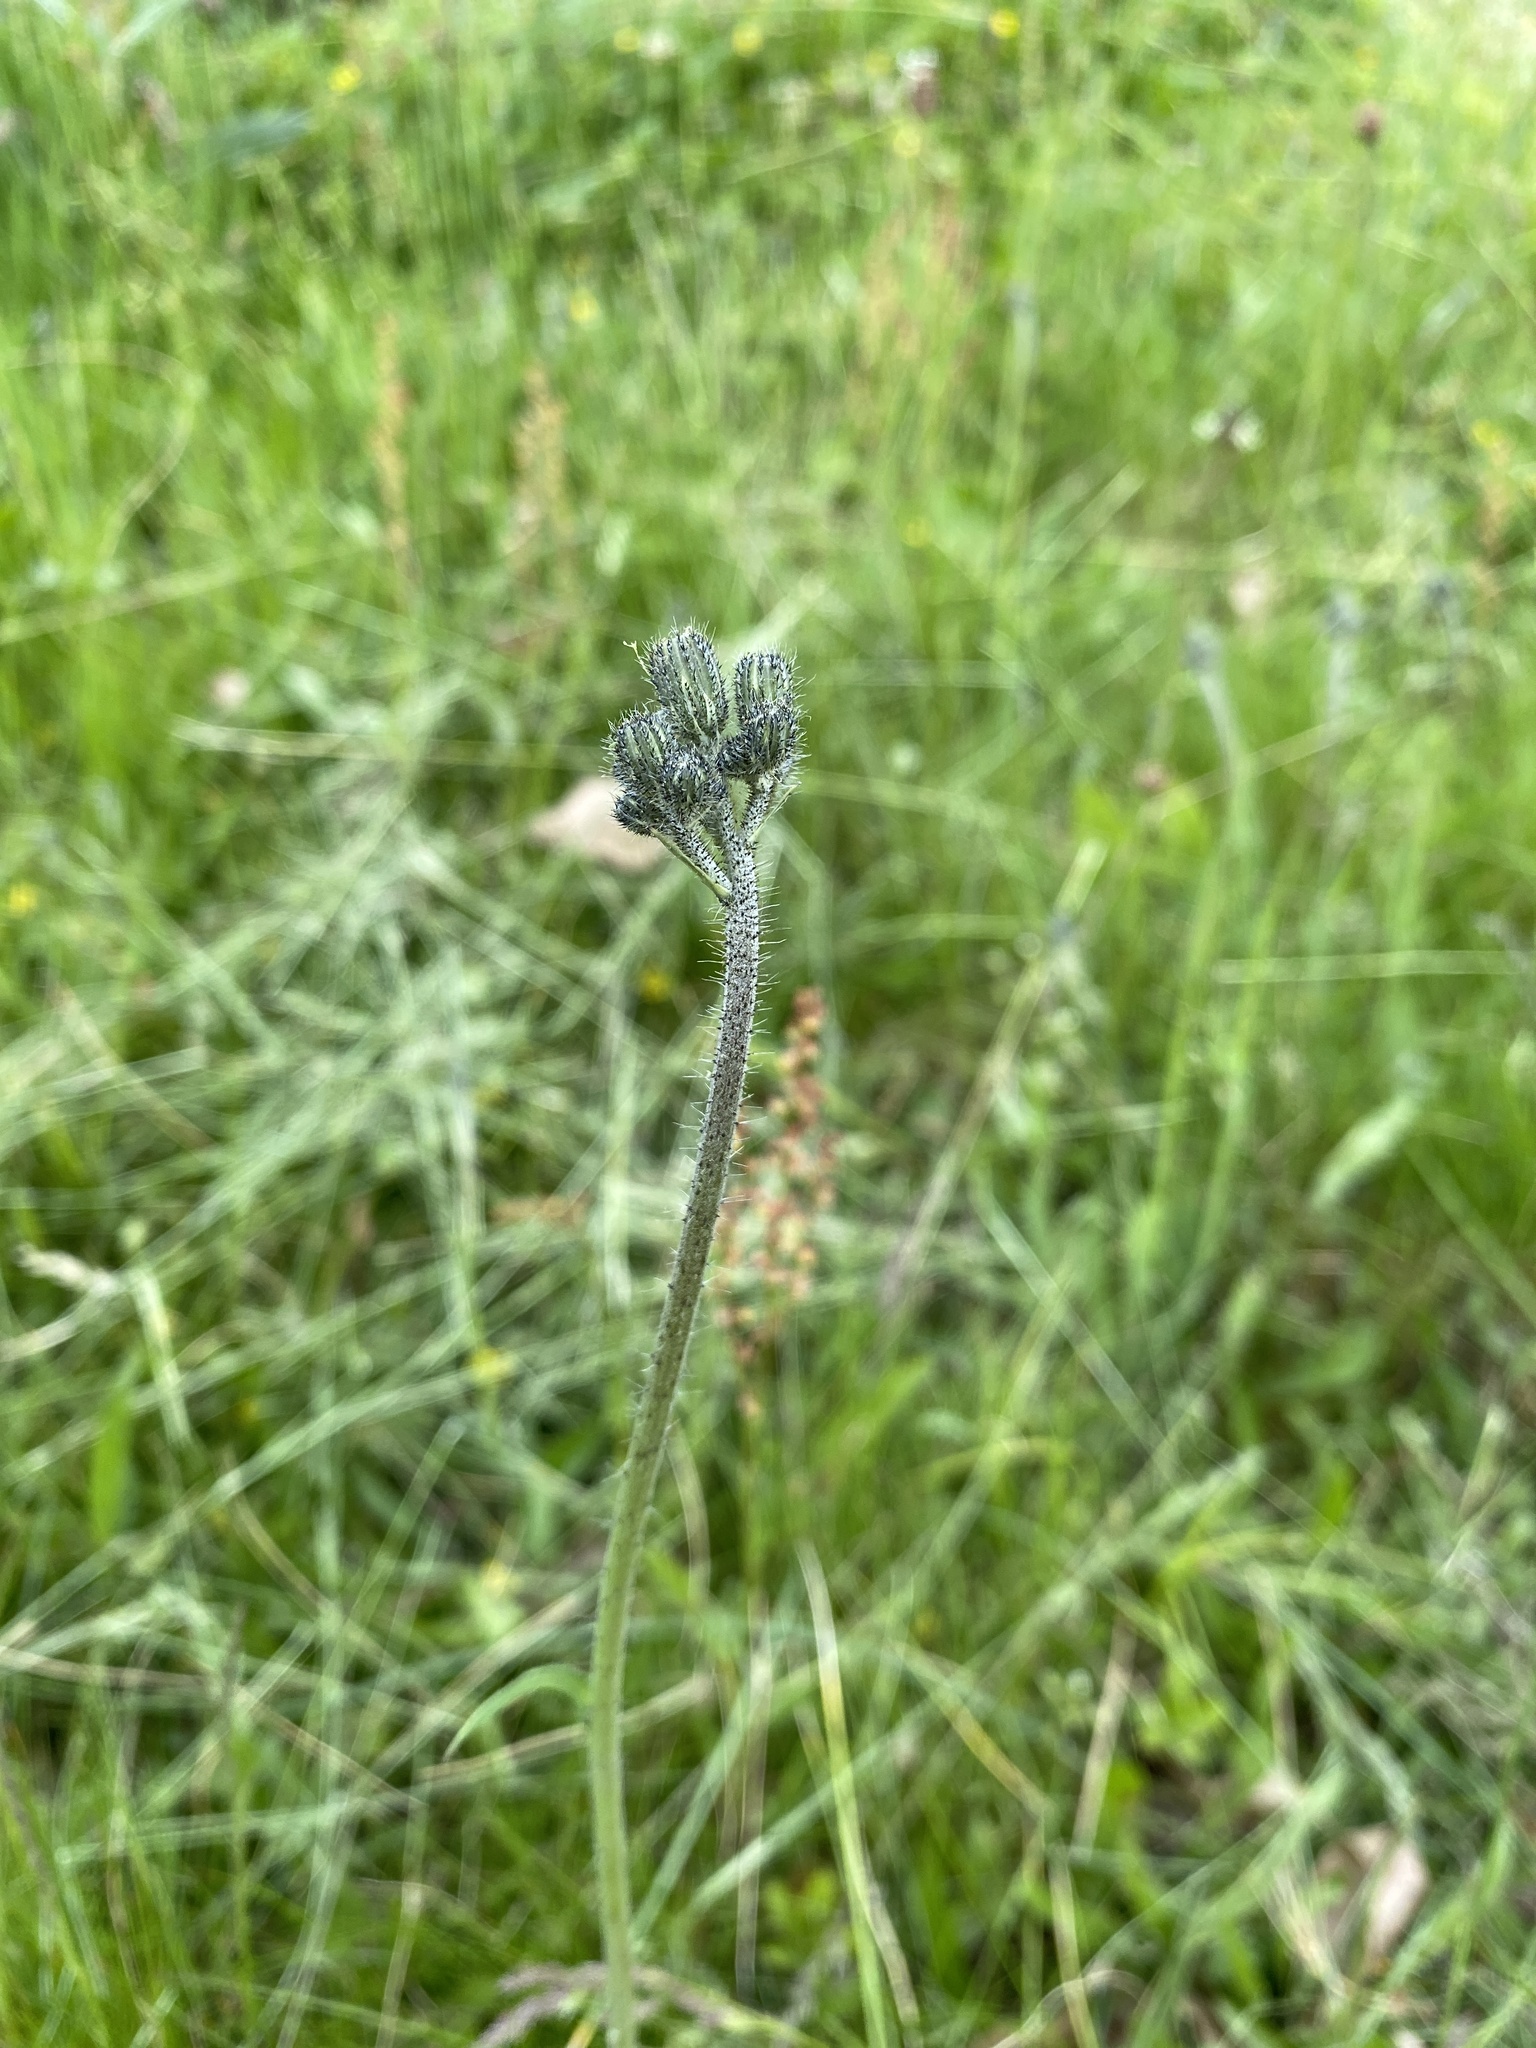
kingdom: Plantae
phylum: Tracheophyta
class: Magnoliopsida
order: Asterales
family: Asteraceae
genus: Pilosella
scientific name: Pilosella caespitosa
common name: Yellow fox-and-cubs
